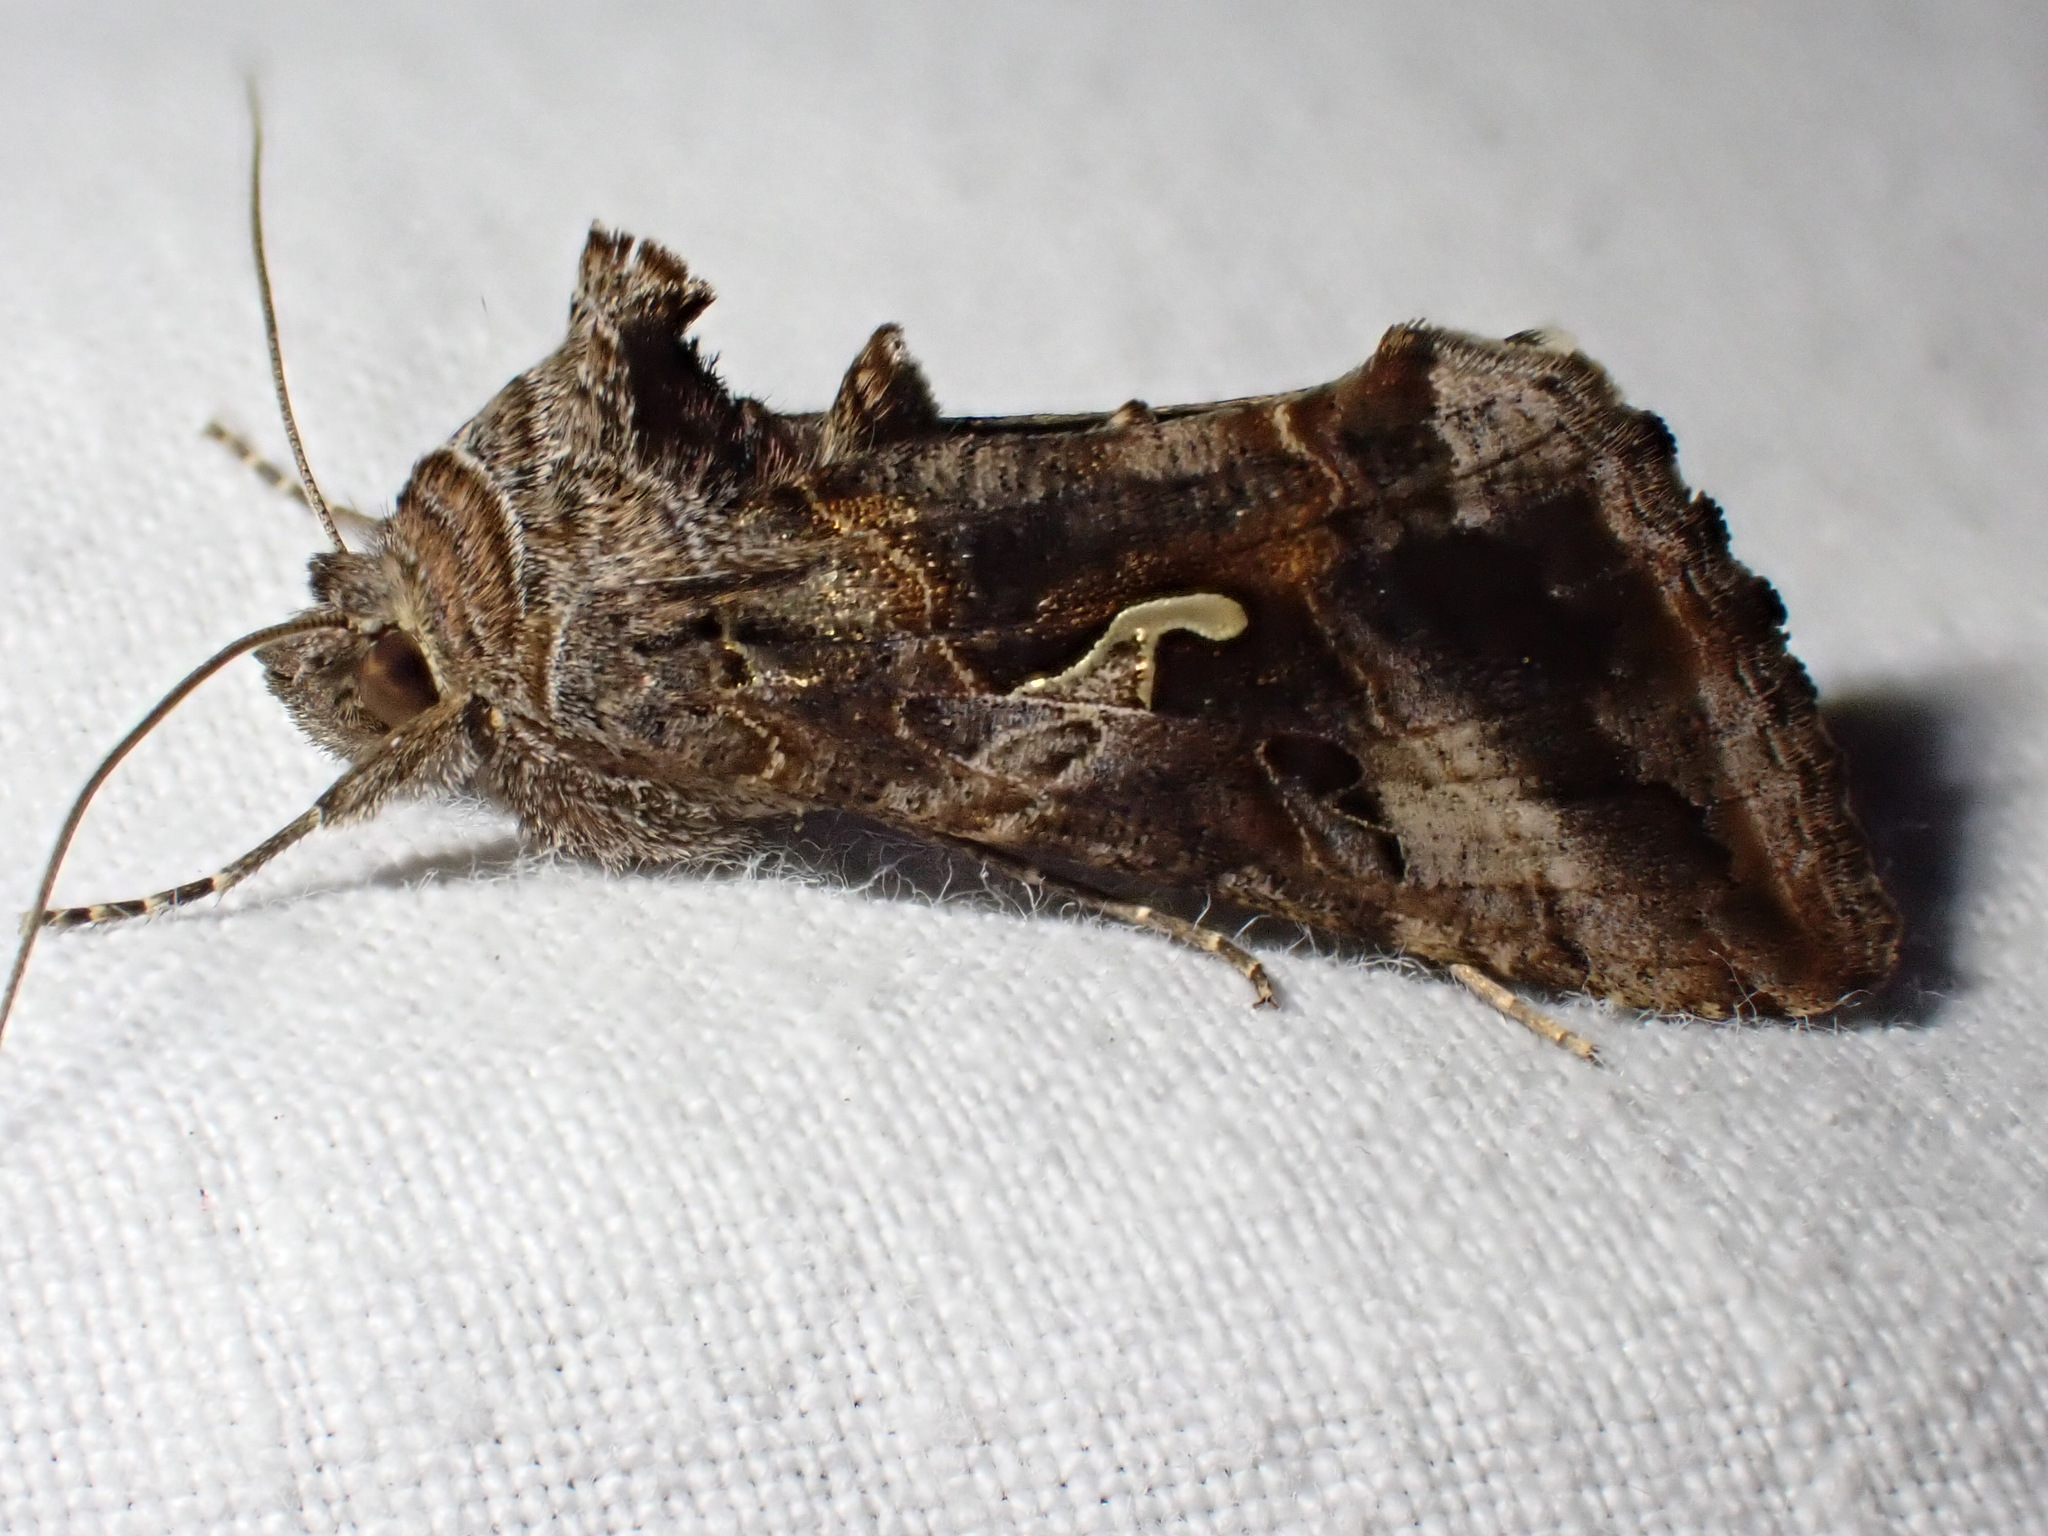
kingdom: Animalia
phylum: Arthropoda
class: Insecta
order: Lepidoptera
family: Noctuidae
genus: Autographa
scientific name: Autographa gamma
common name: Silver y
